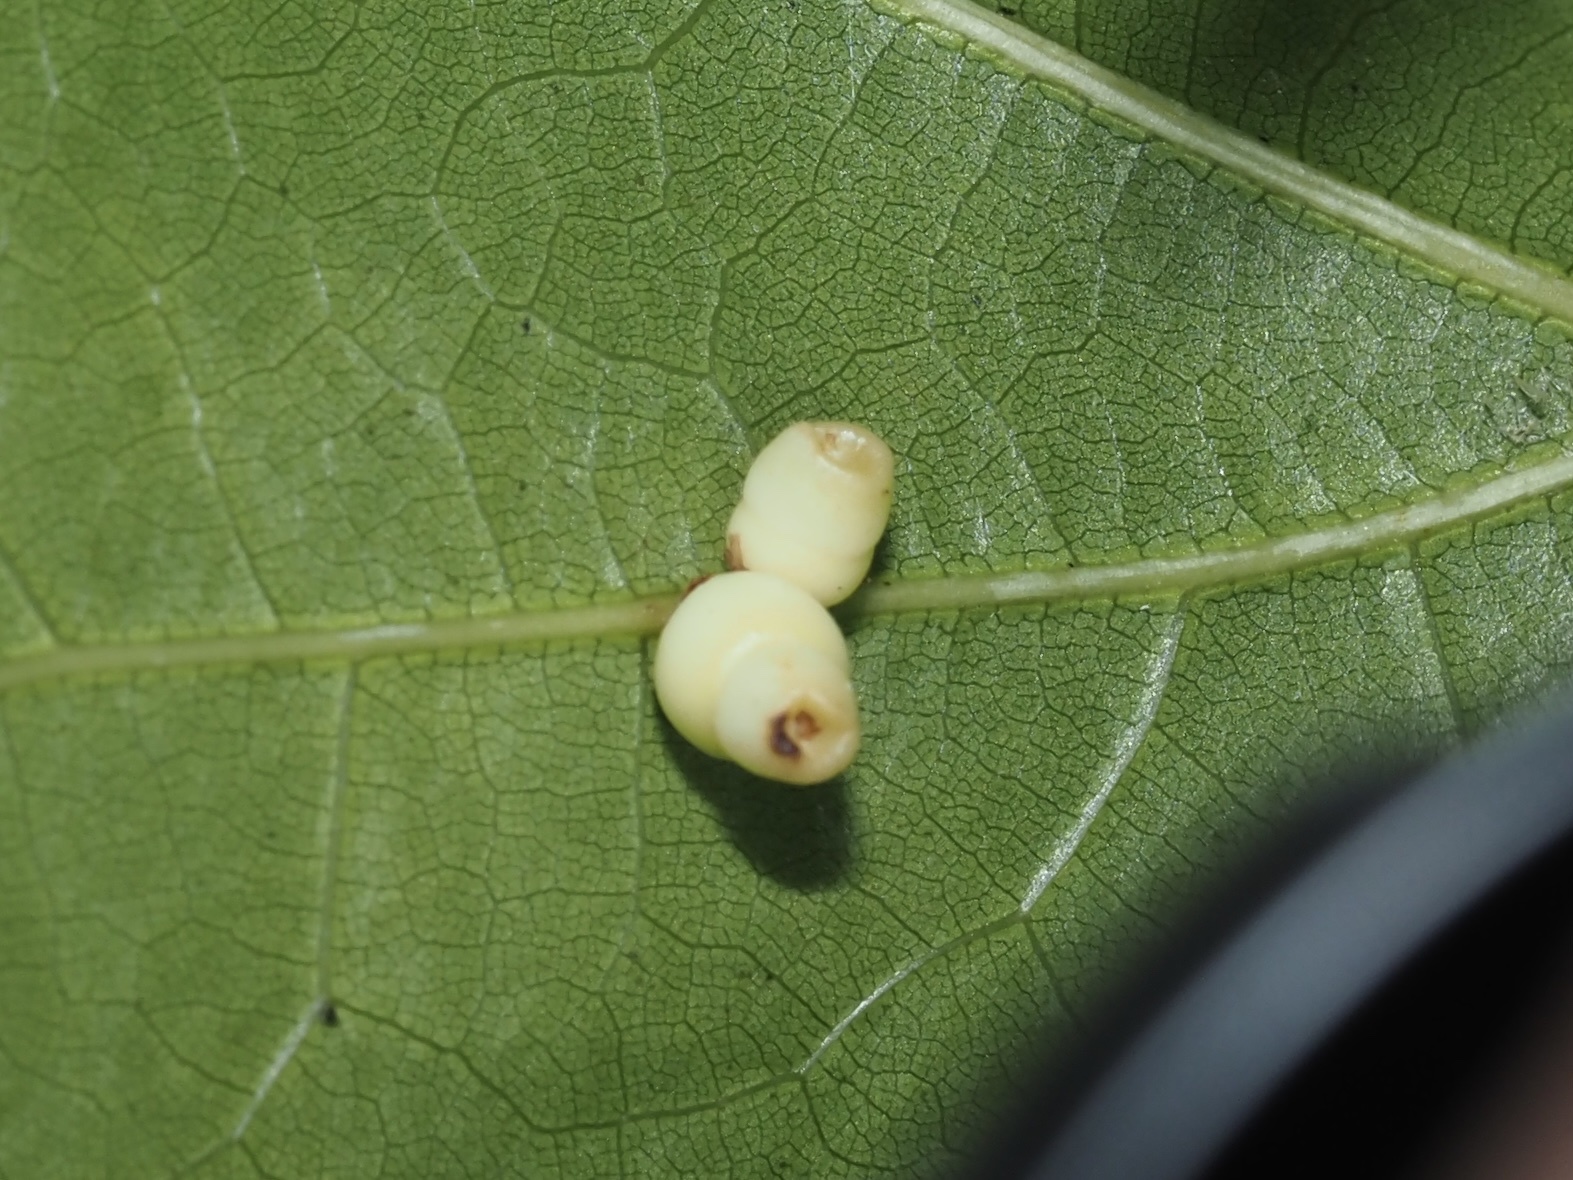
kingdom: Animalia
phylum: Arthropoda
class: Insecta
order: Hymenoptera
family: Cynipidae
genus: Kokkocynips
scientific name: Kokkocynips rileyi
